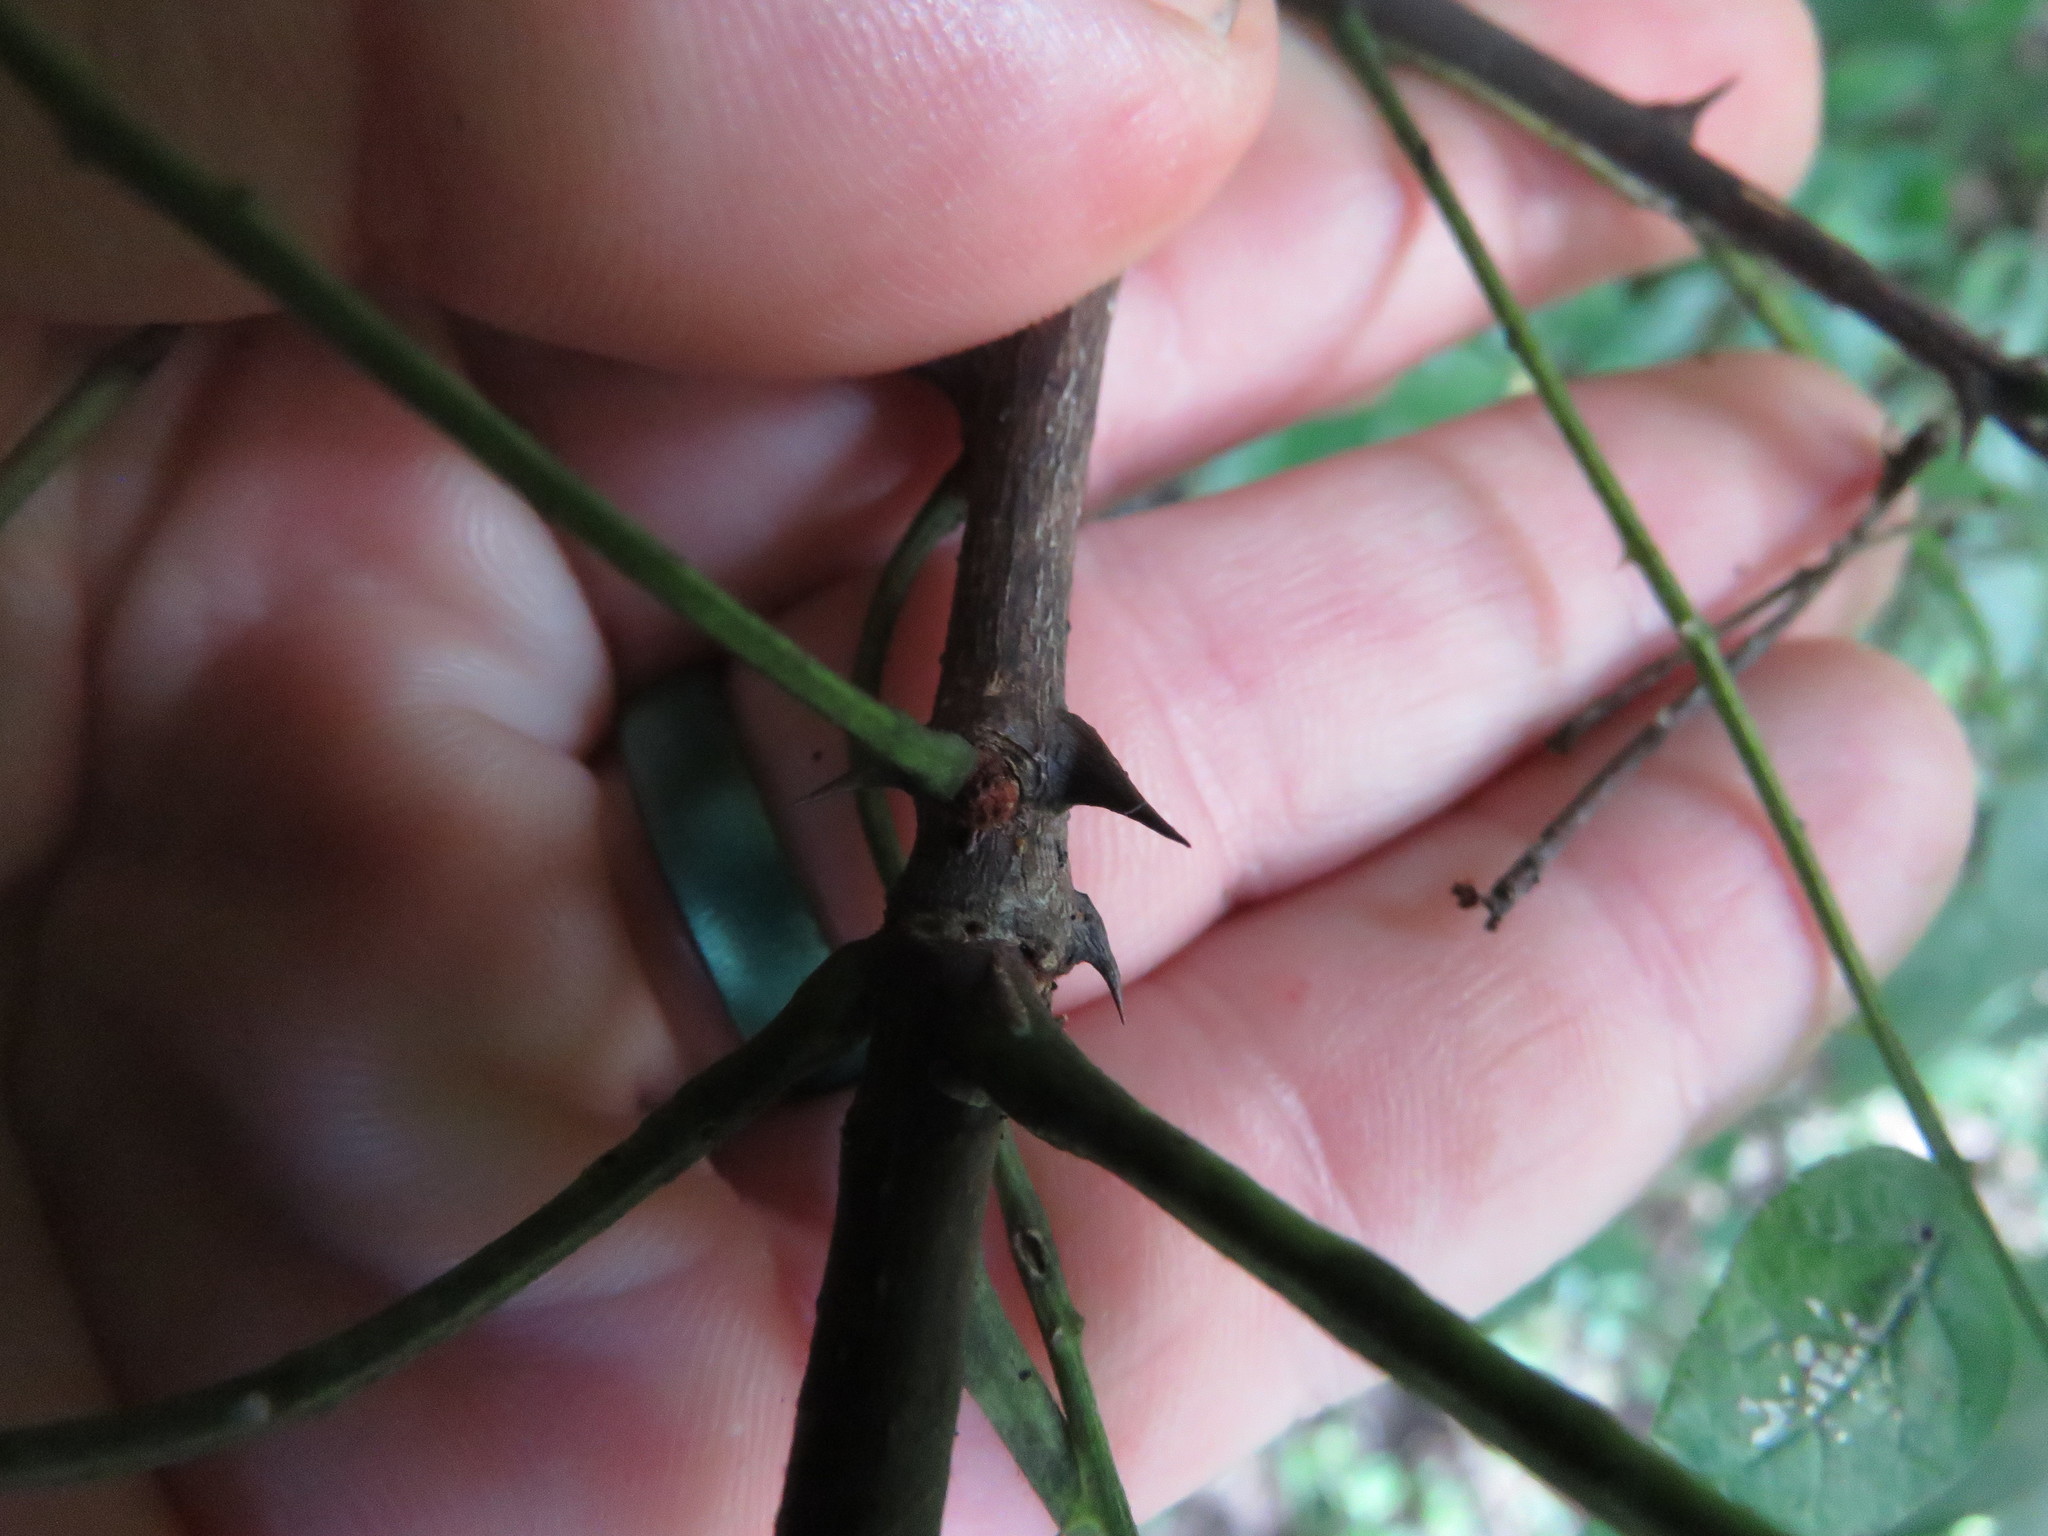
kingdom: Plantae
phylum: Tracheophyta
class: Magnoliopsida
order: Sapindales
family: Rutaceae
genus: Zanthoxylum
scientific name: Zanthoxylum americanum
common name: Northern prickly-ash
